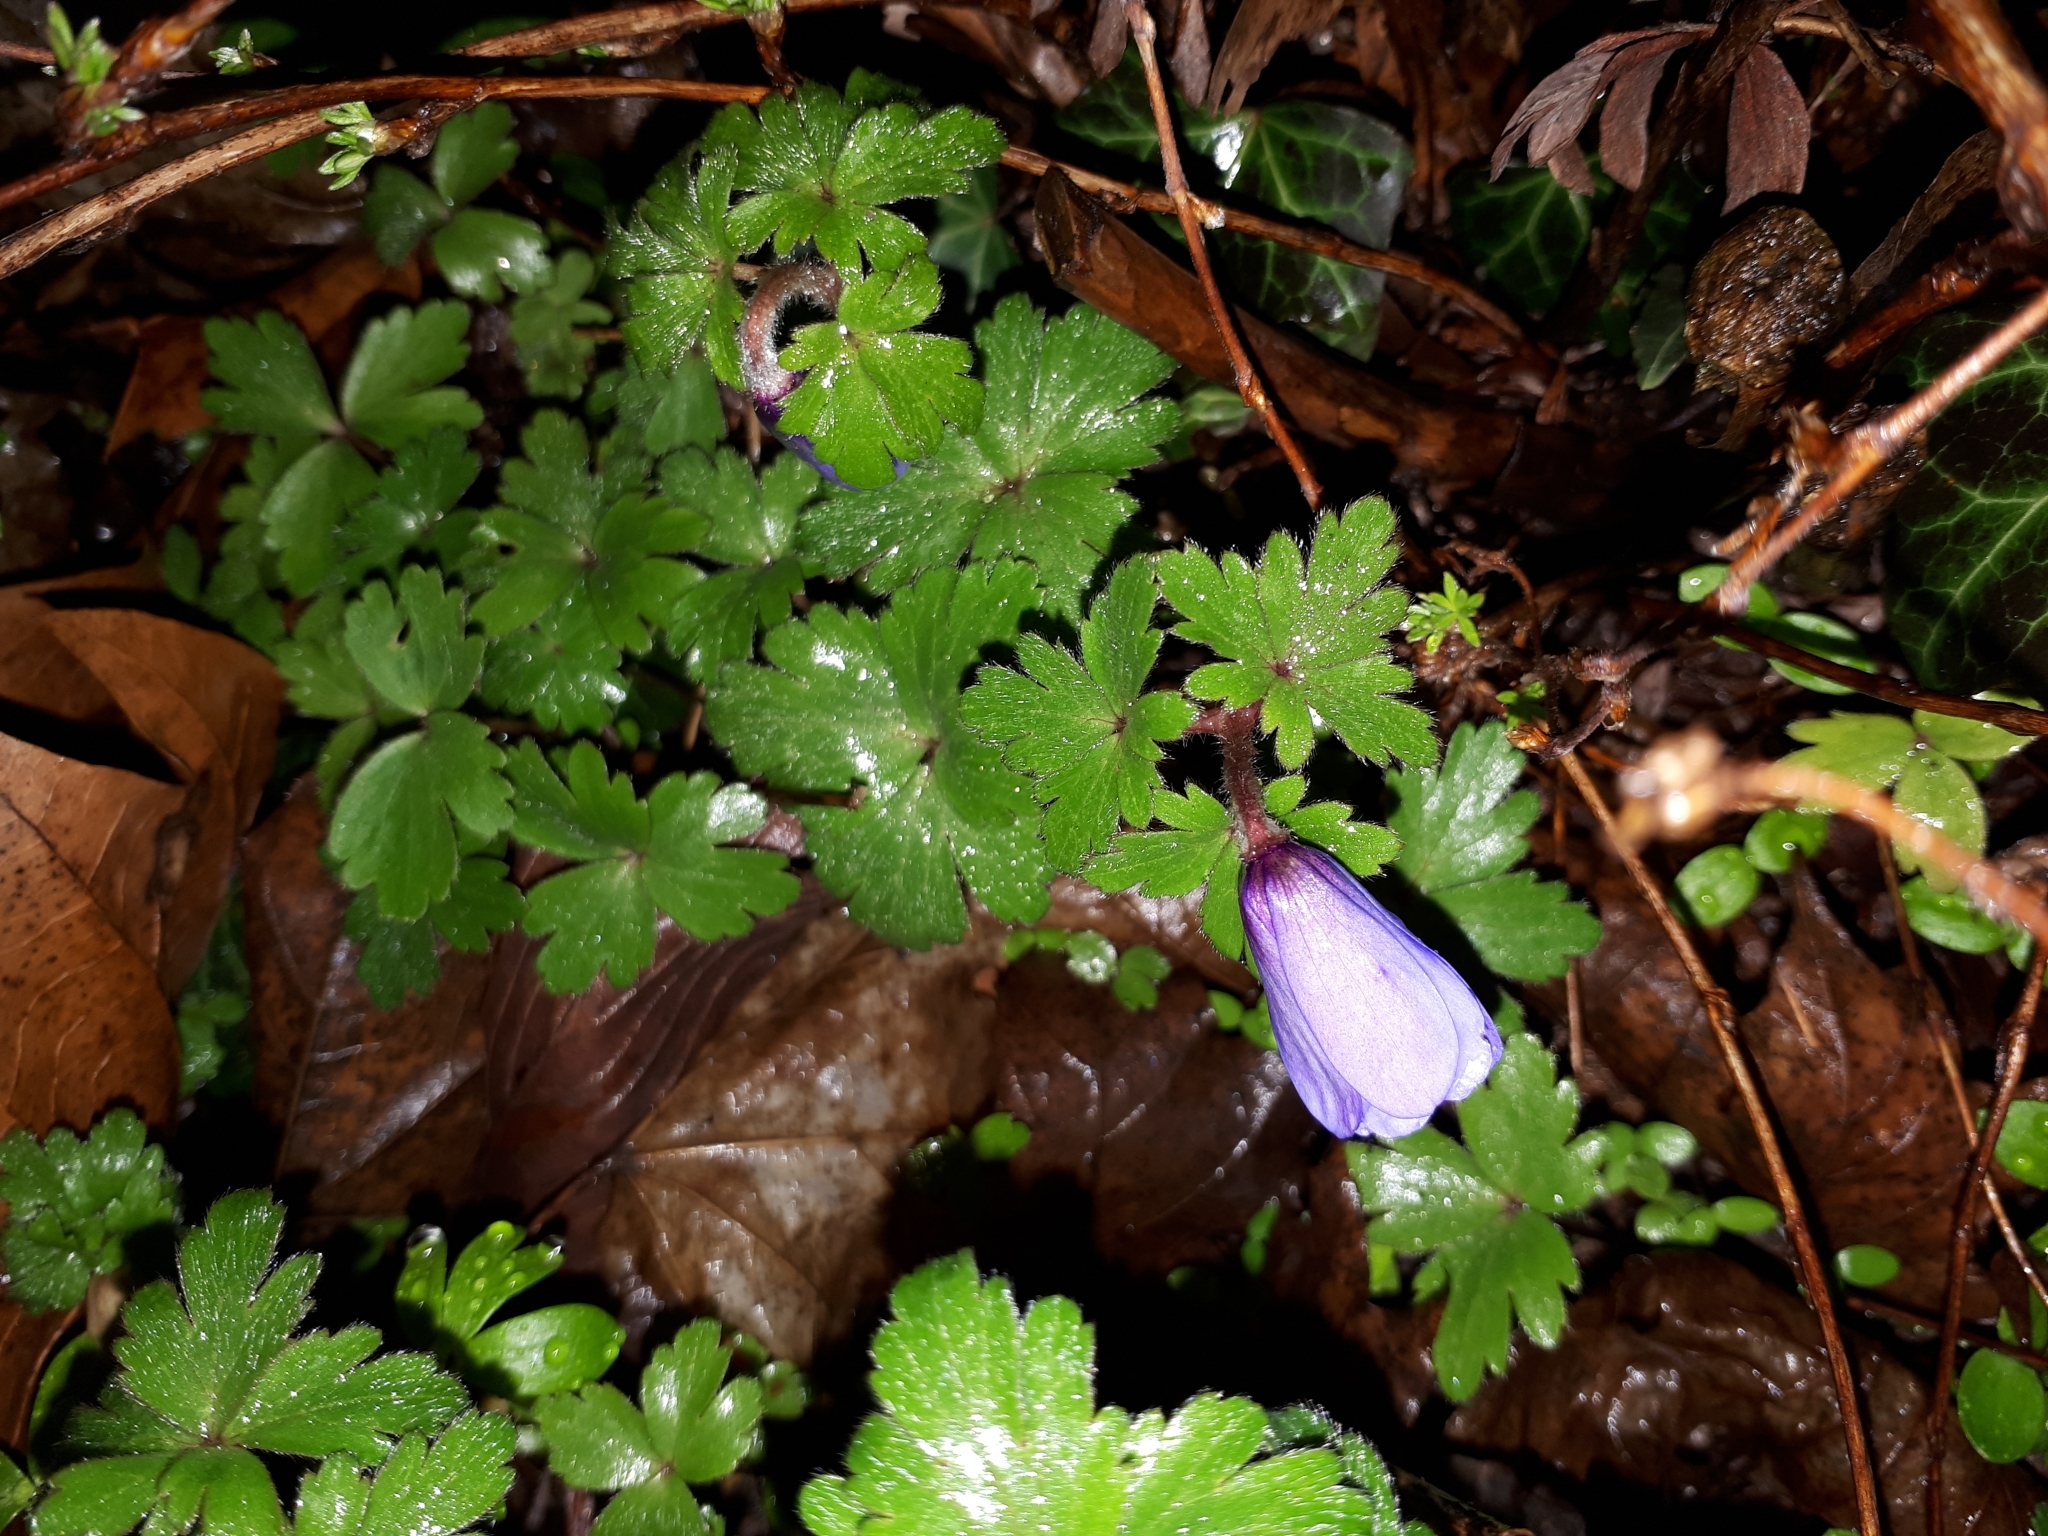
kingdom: Plantae
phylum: Tracheophyta
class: Magnoliopsida
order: Ranunculales
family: Ranunculaceae
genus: Anemone
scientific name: Anemone blanda
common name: Balkan anemone
